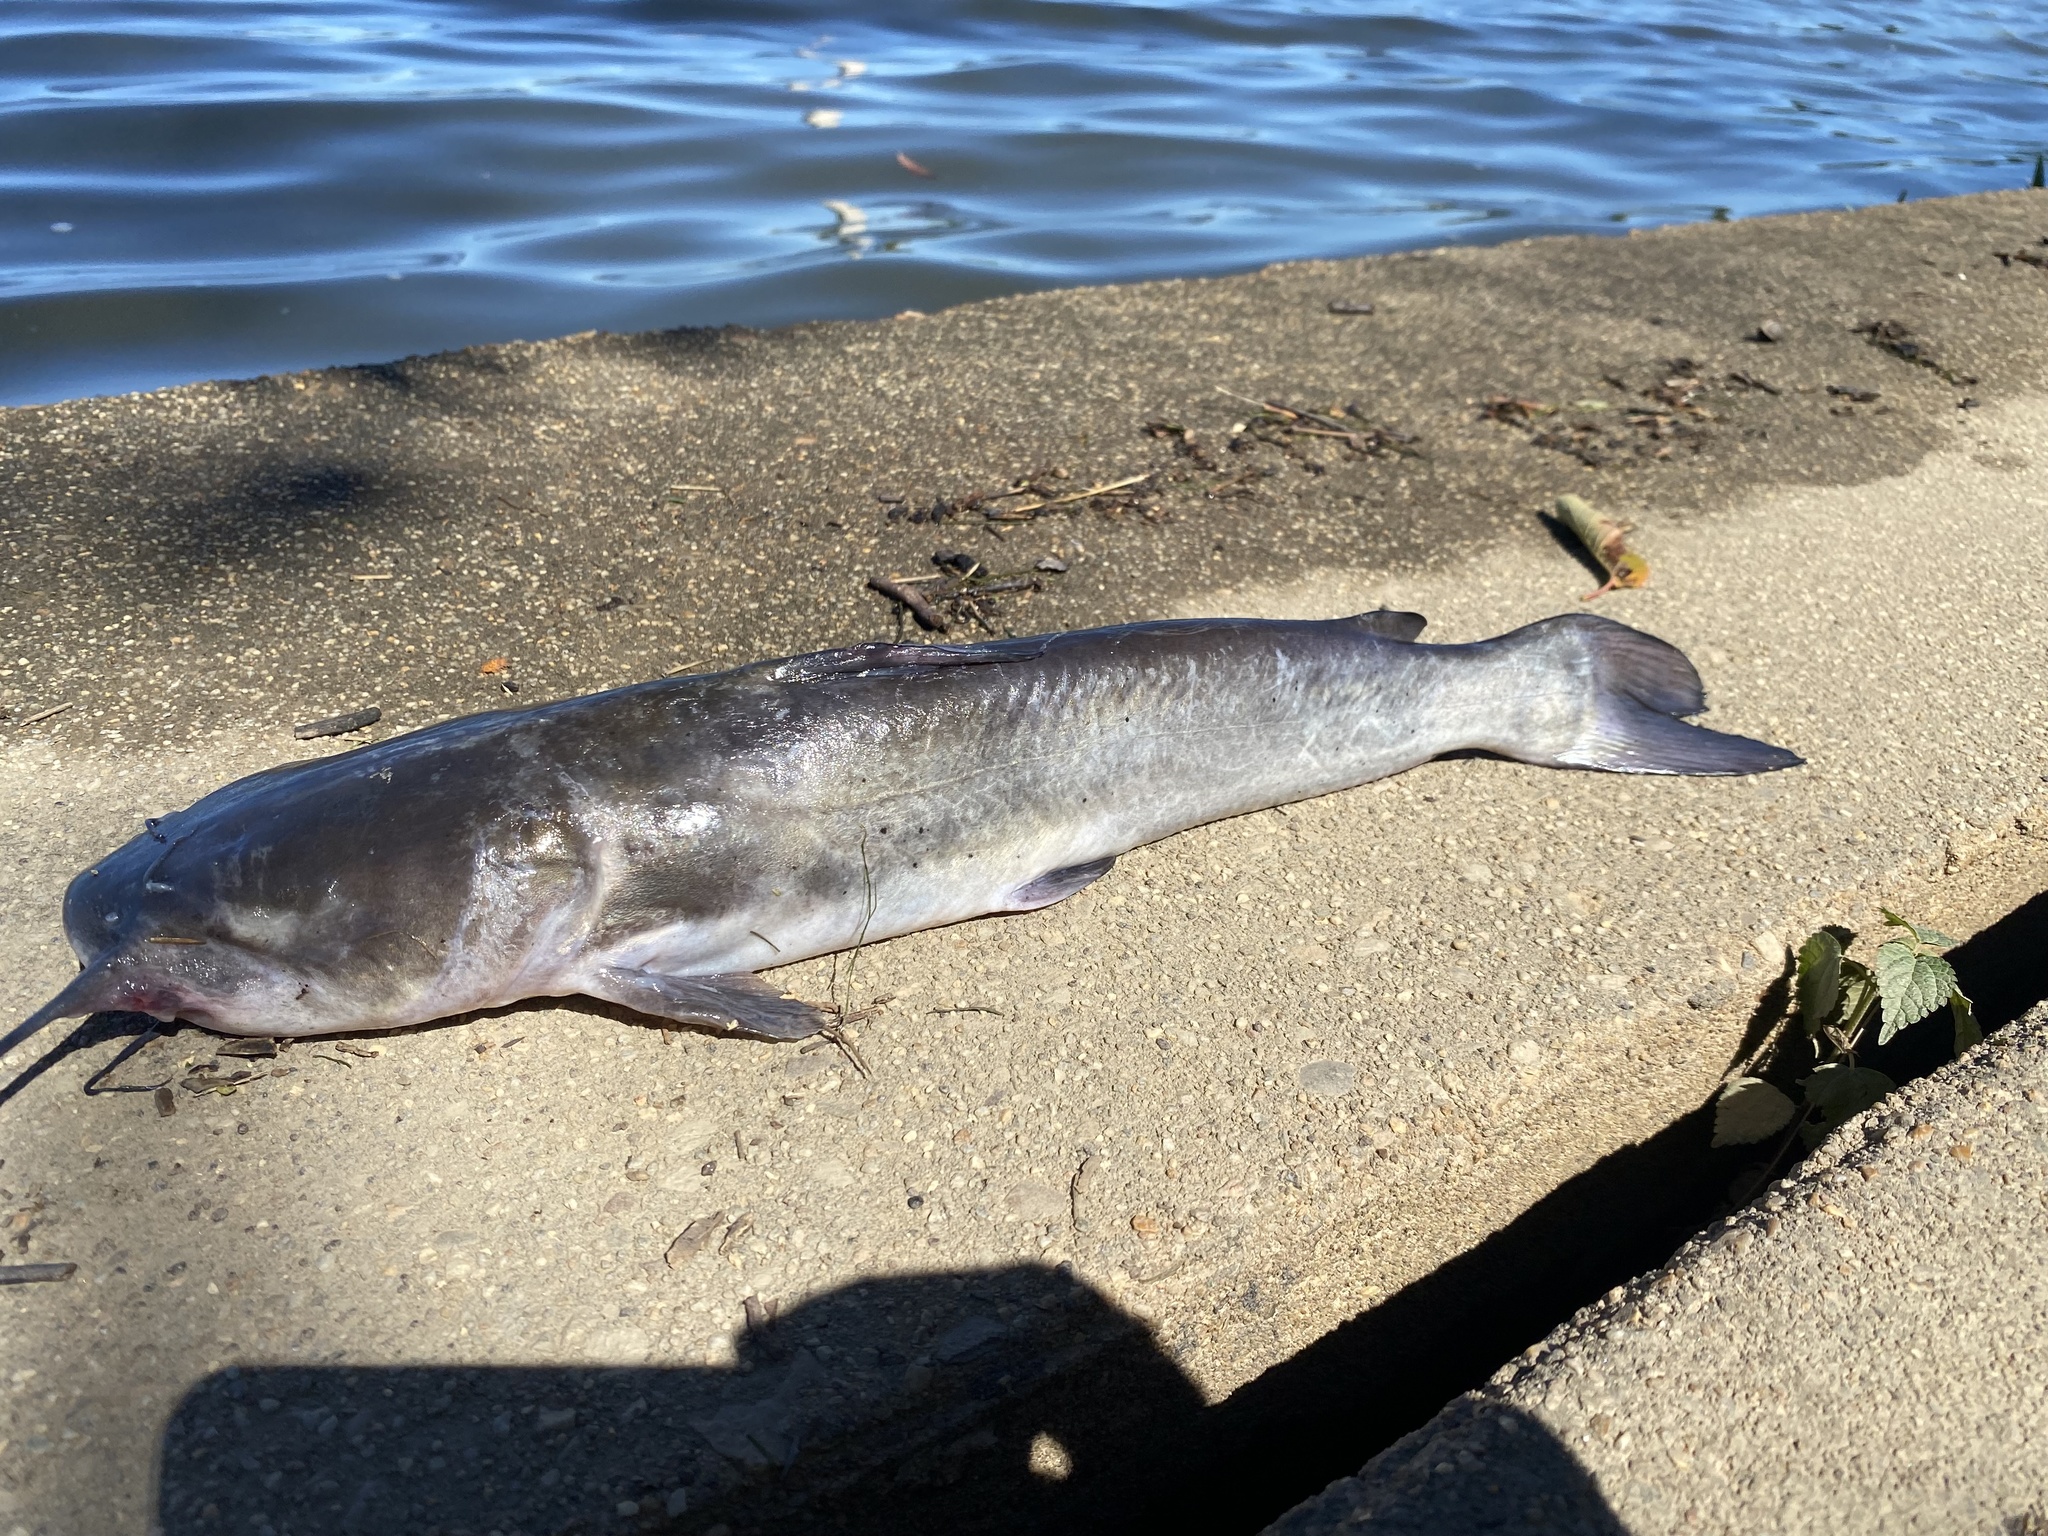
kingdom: Animalia
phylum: Chordata
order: Siluriformes
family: Ictaluridae
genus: Ictalurus
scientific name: Ictalurus punctatus
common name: Channel catfish
